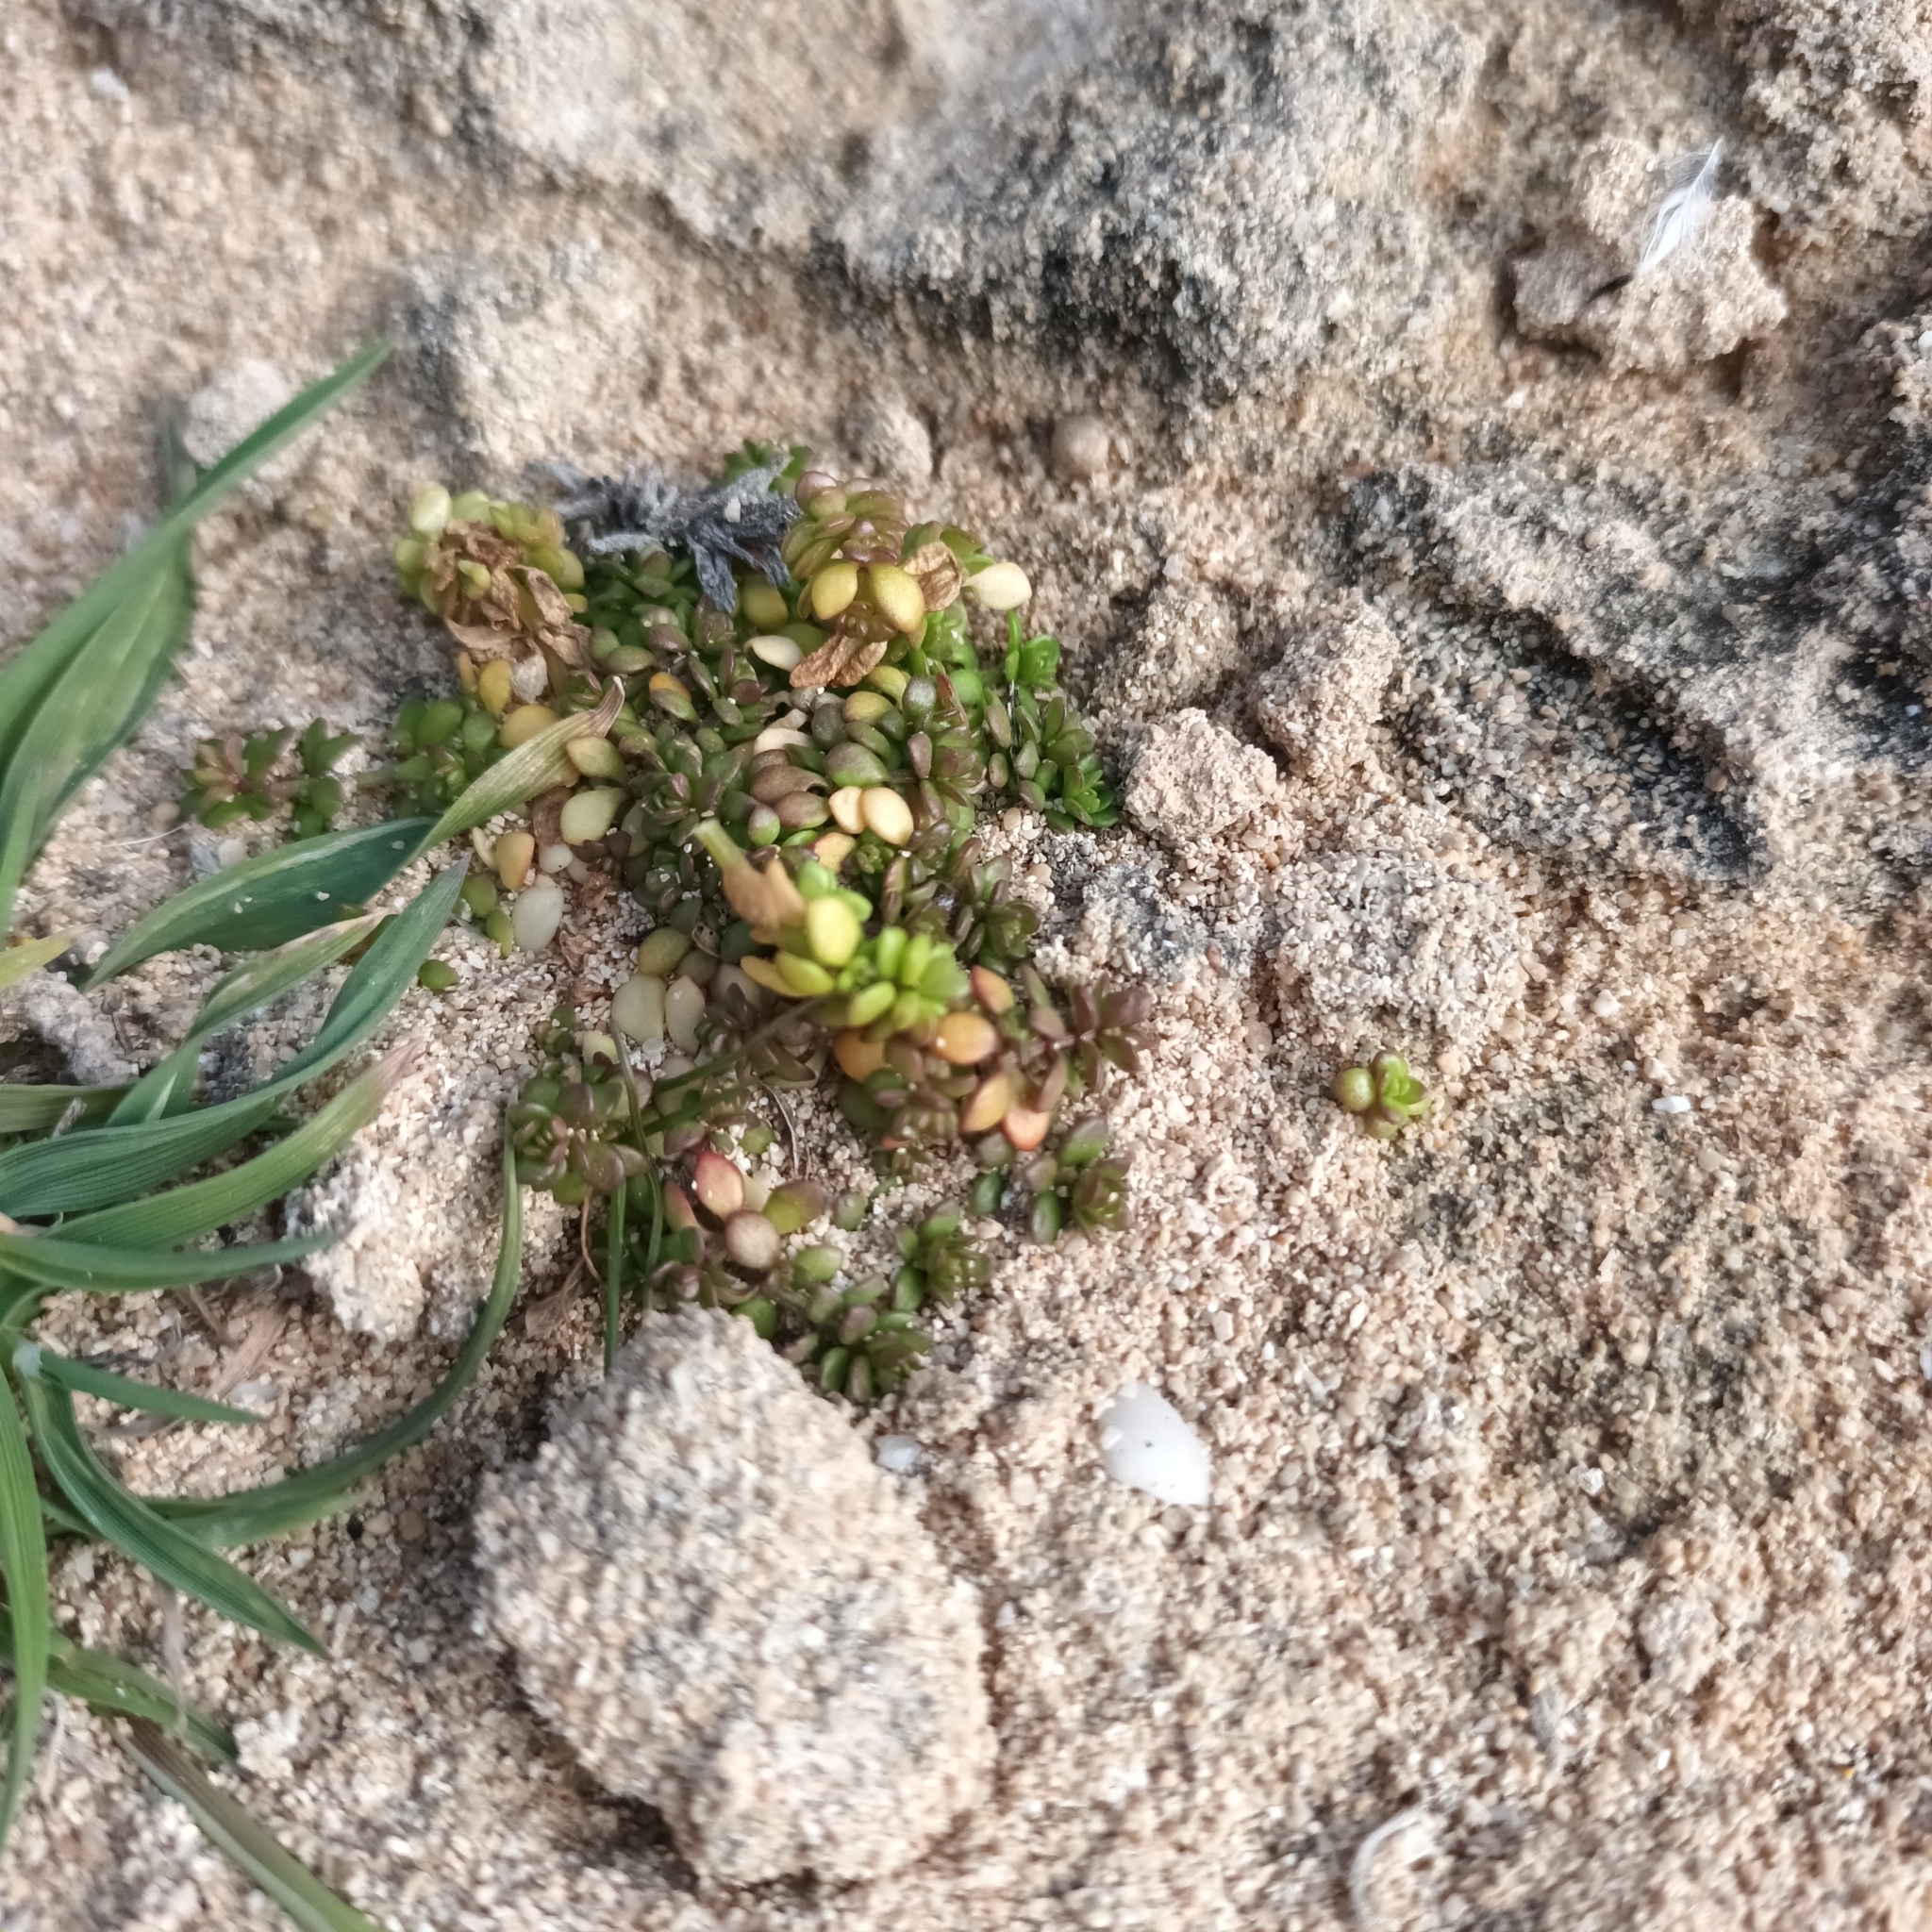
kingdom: Plantae
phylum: Tracheophyta
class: Magnoliopsida
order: Gentianales
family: Rubiaceae
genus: Valantia
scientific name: Valantia muralis
